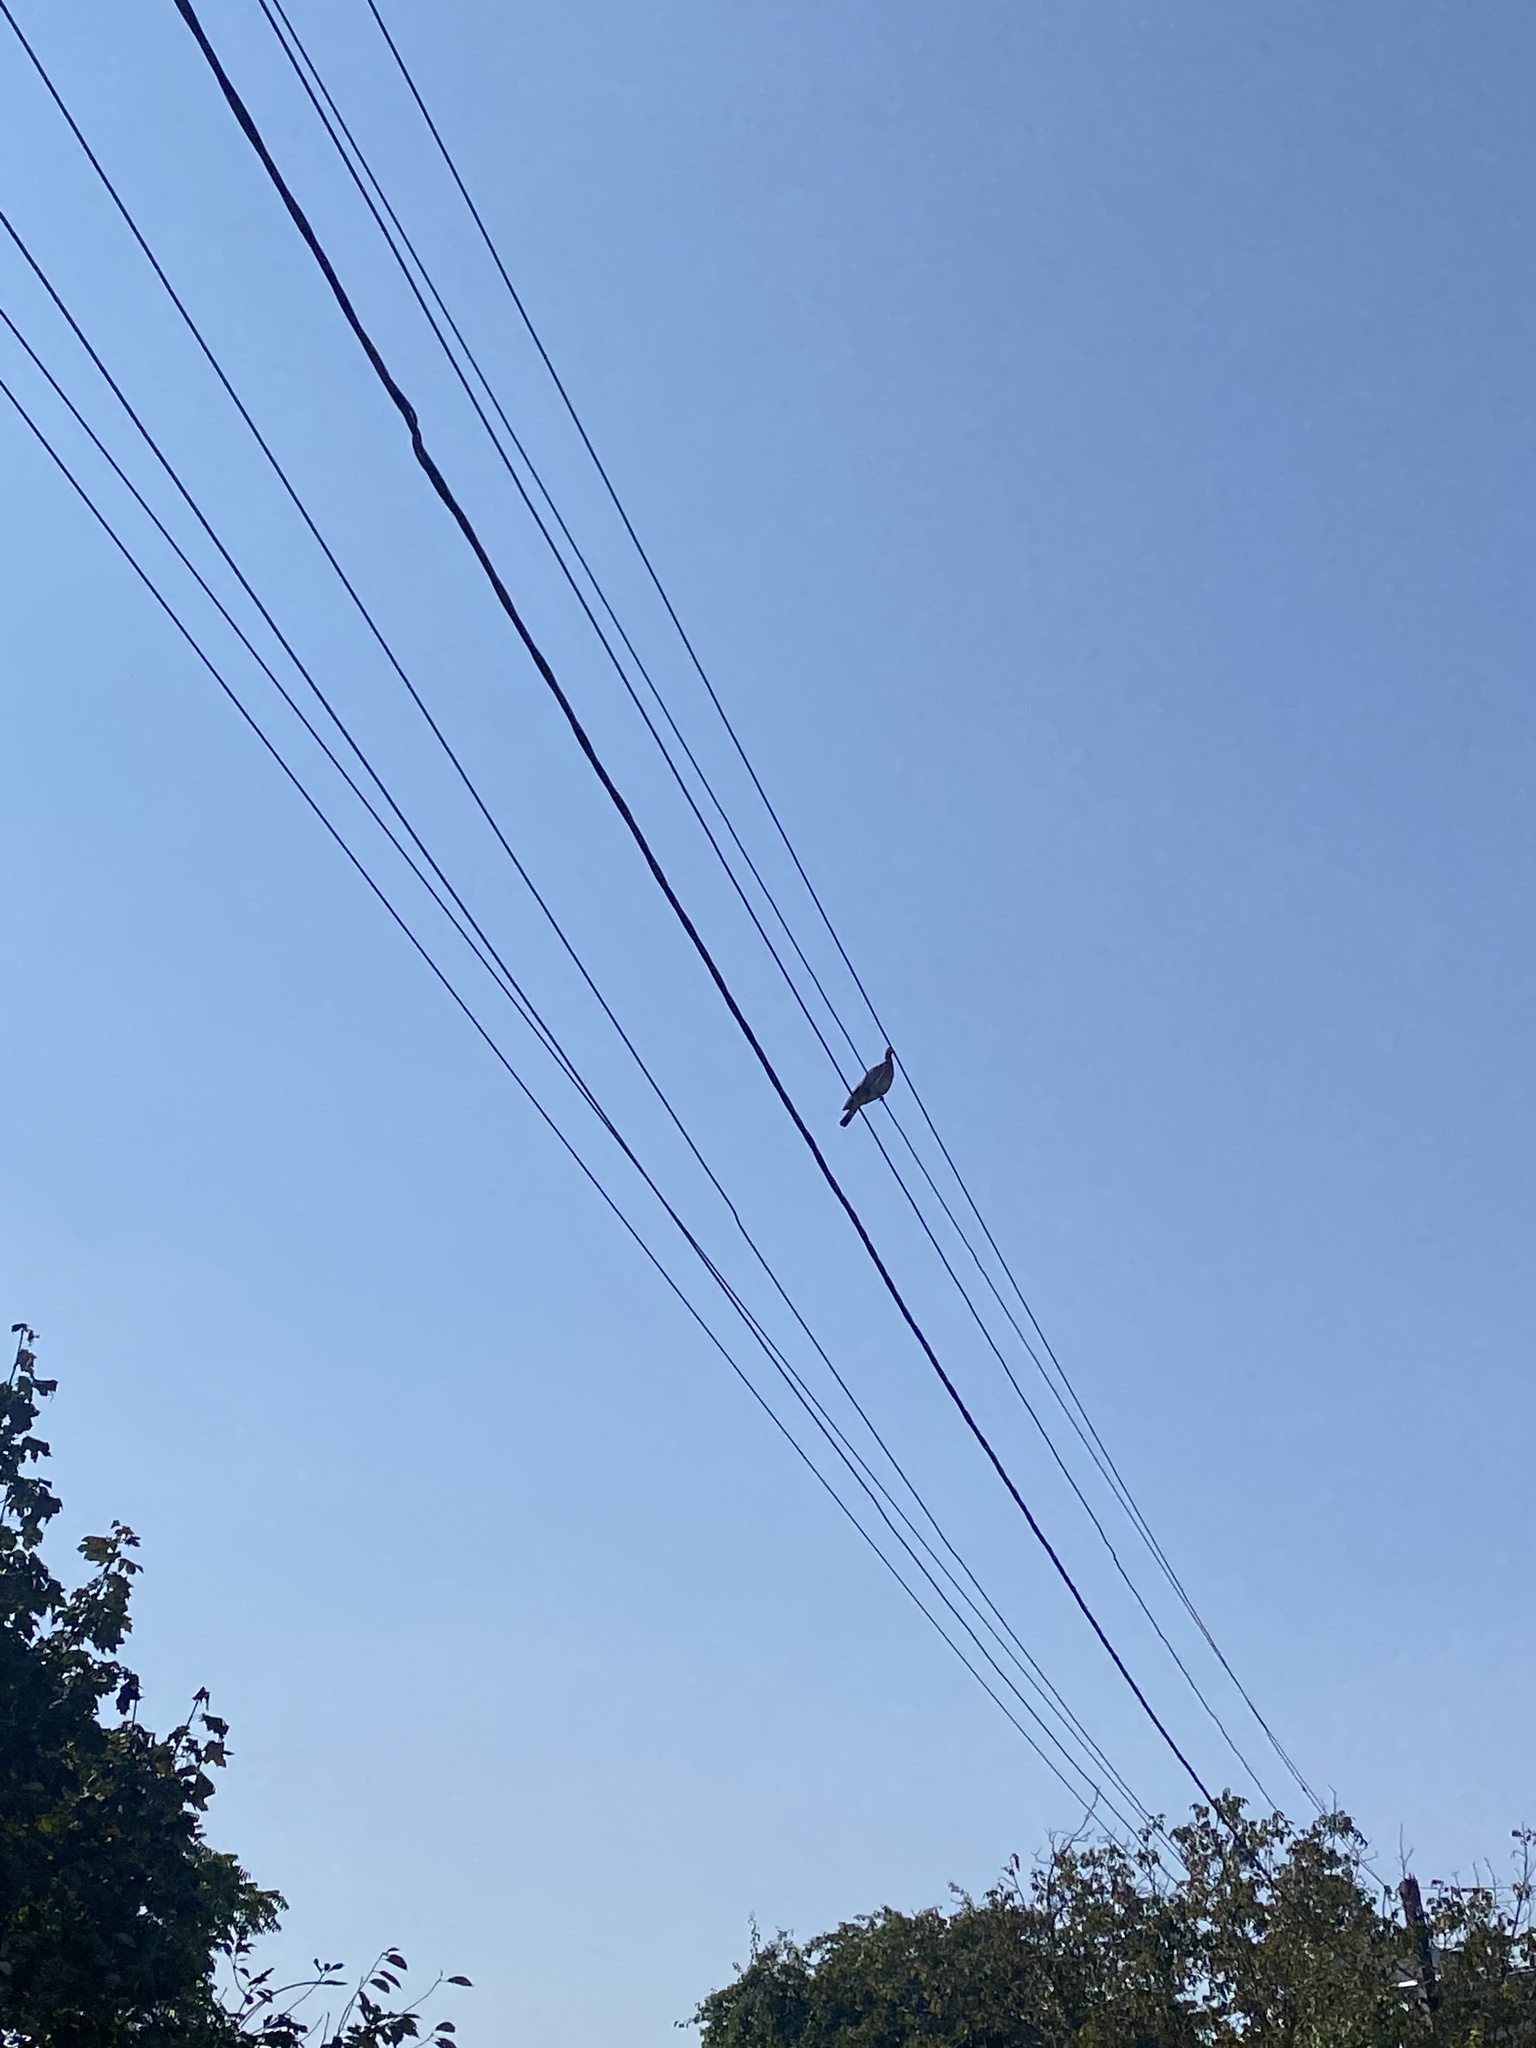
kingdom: Animalia
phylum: Chordata
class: Aves
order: Columbiformes
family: Columbidae
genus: Columba
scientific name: Columba palumbus
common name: Common wood pigeon
